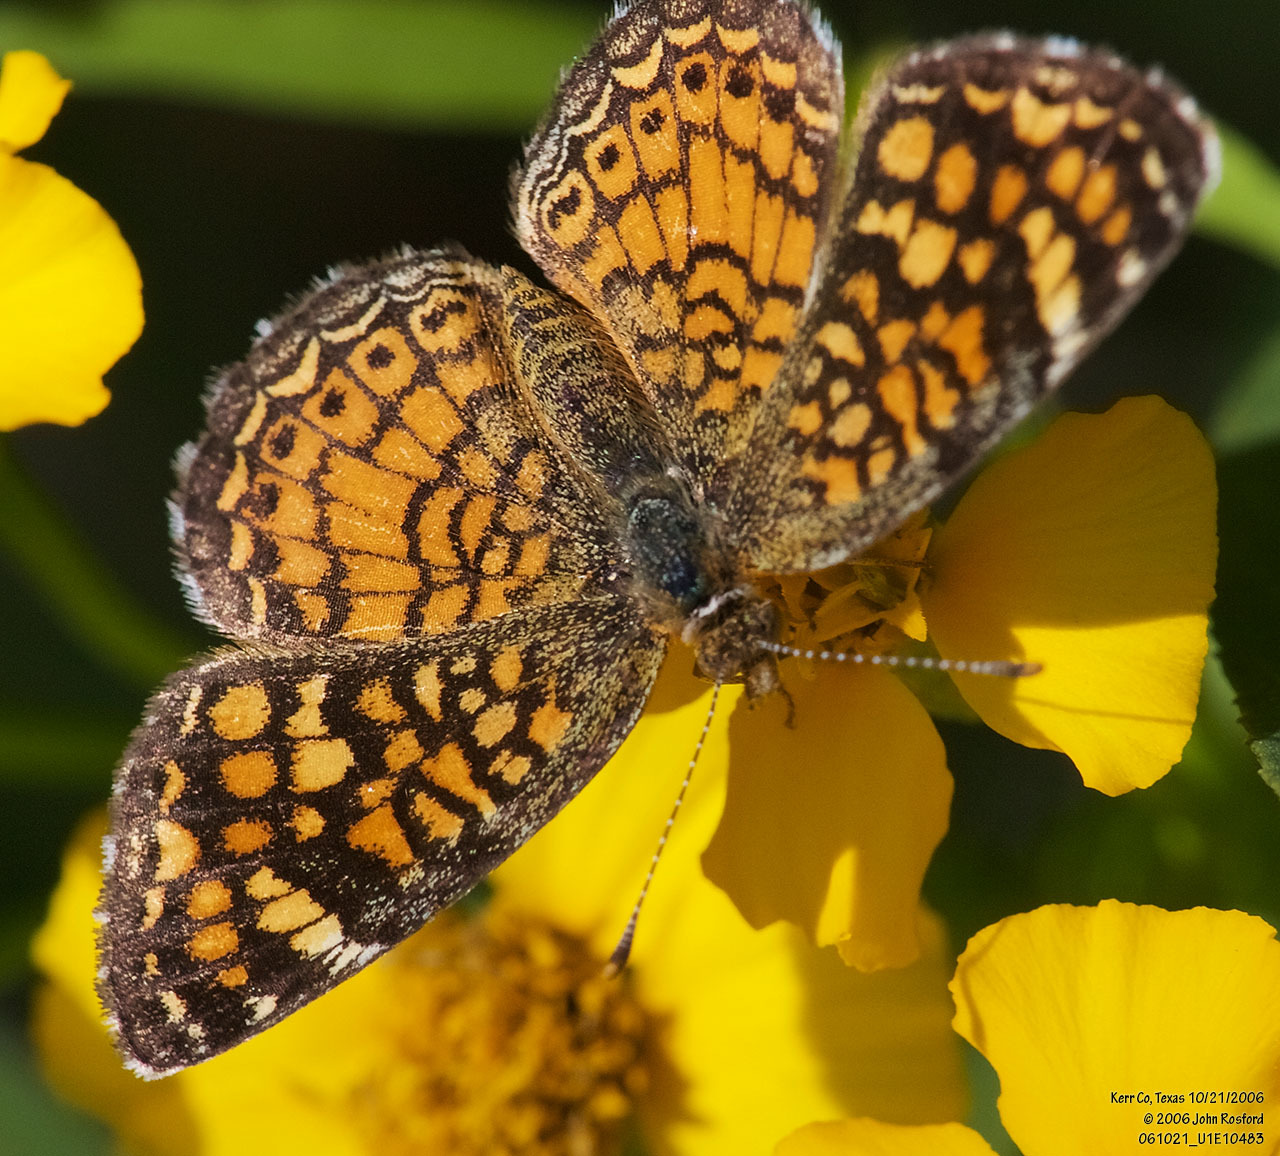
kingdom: Animalia
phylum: Arthropoda
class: Insecta
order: Lepidoptera
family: Nymphalidae
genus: Phyciodes
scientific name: Phyciodes vesta
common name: Vesta crescent
